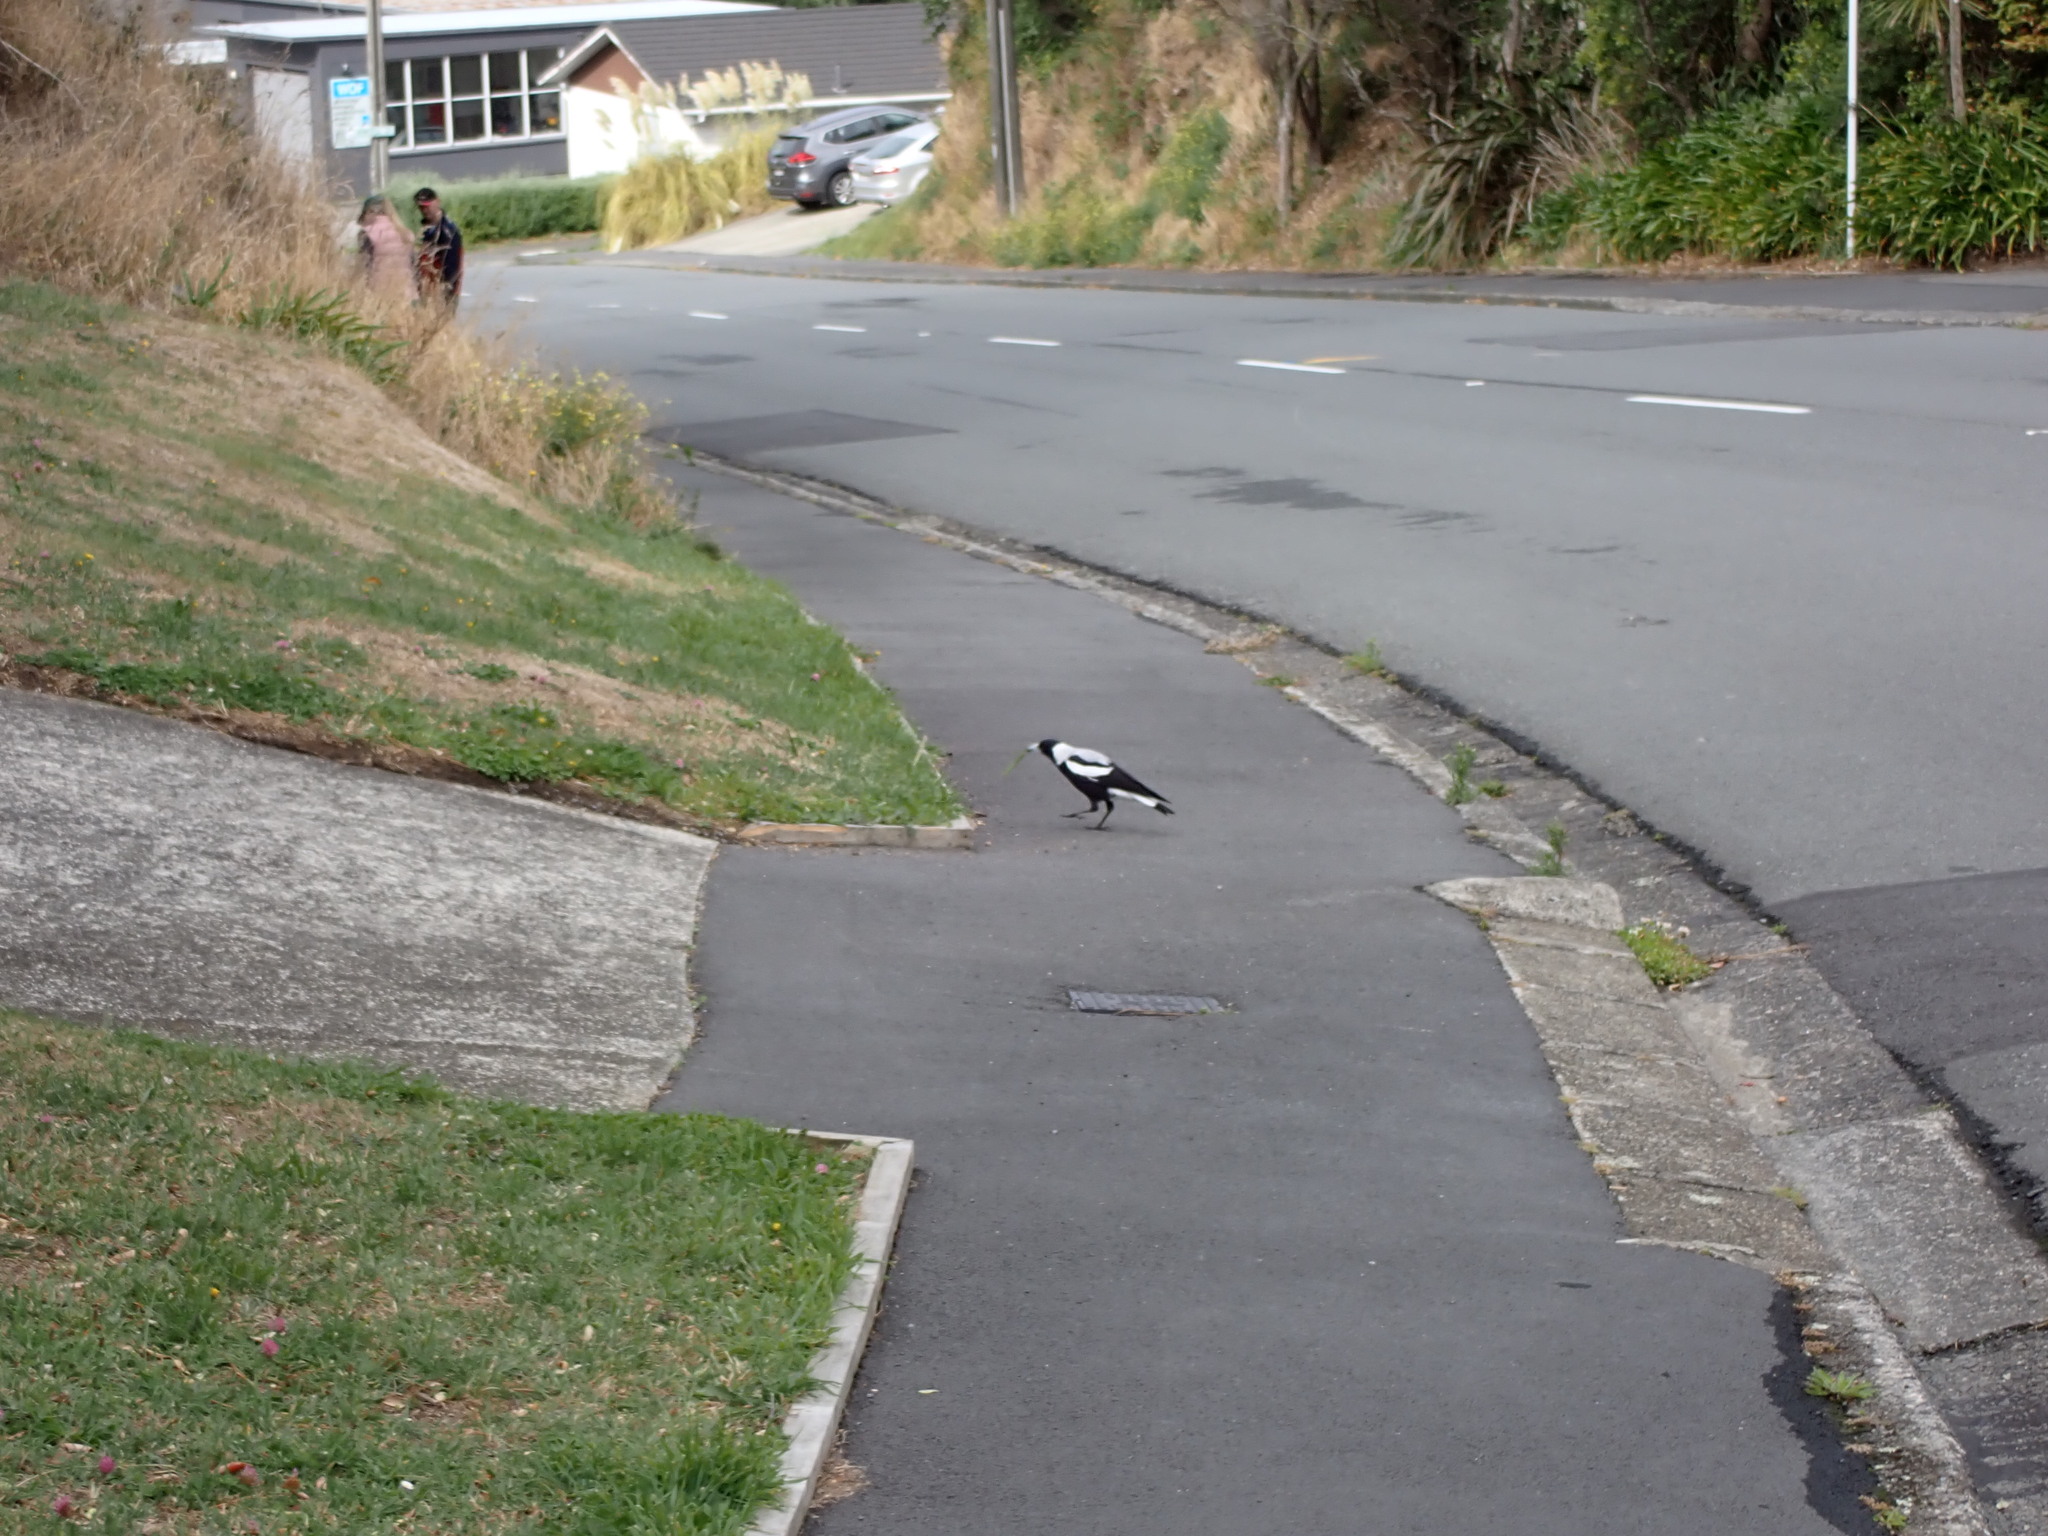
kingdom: Animalia
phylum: Chordata
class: Aves
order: Passeriformes
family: Cracticidae
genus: Gymnorhina
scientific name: Gymnorhina tibicen
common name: Australian magpie
